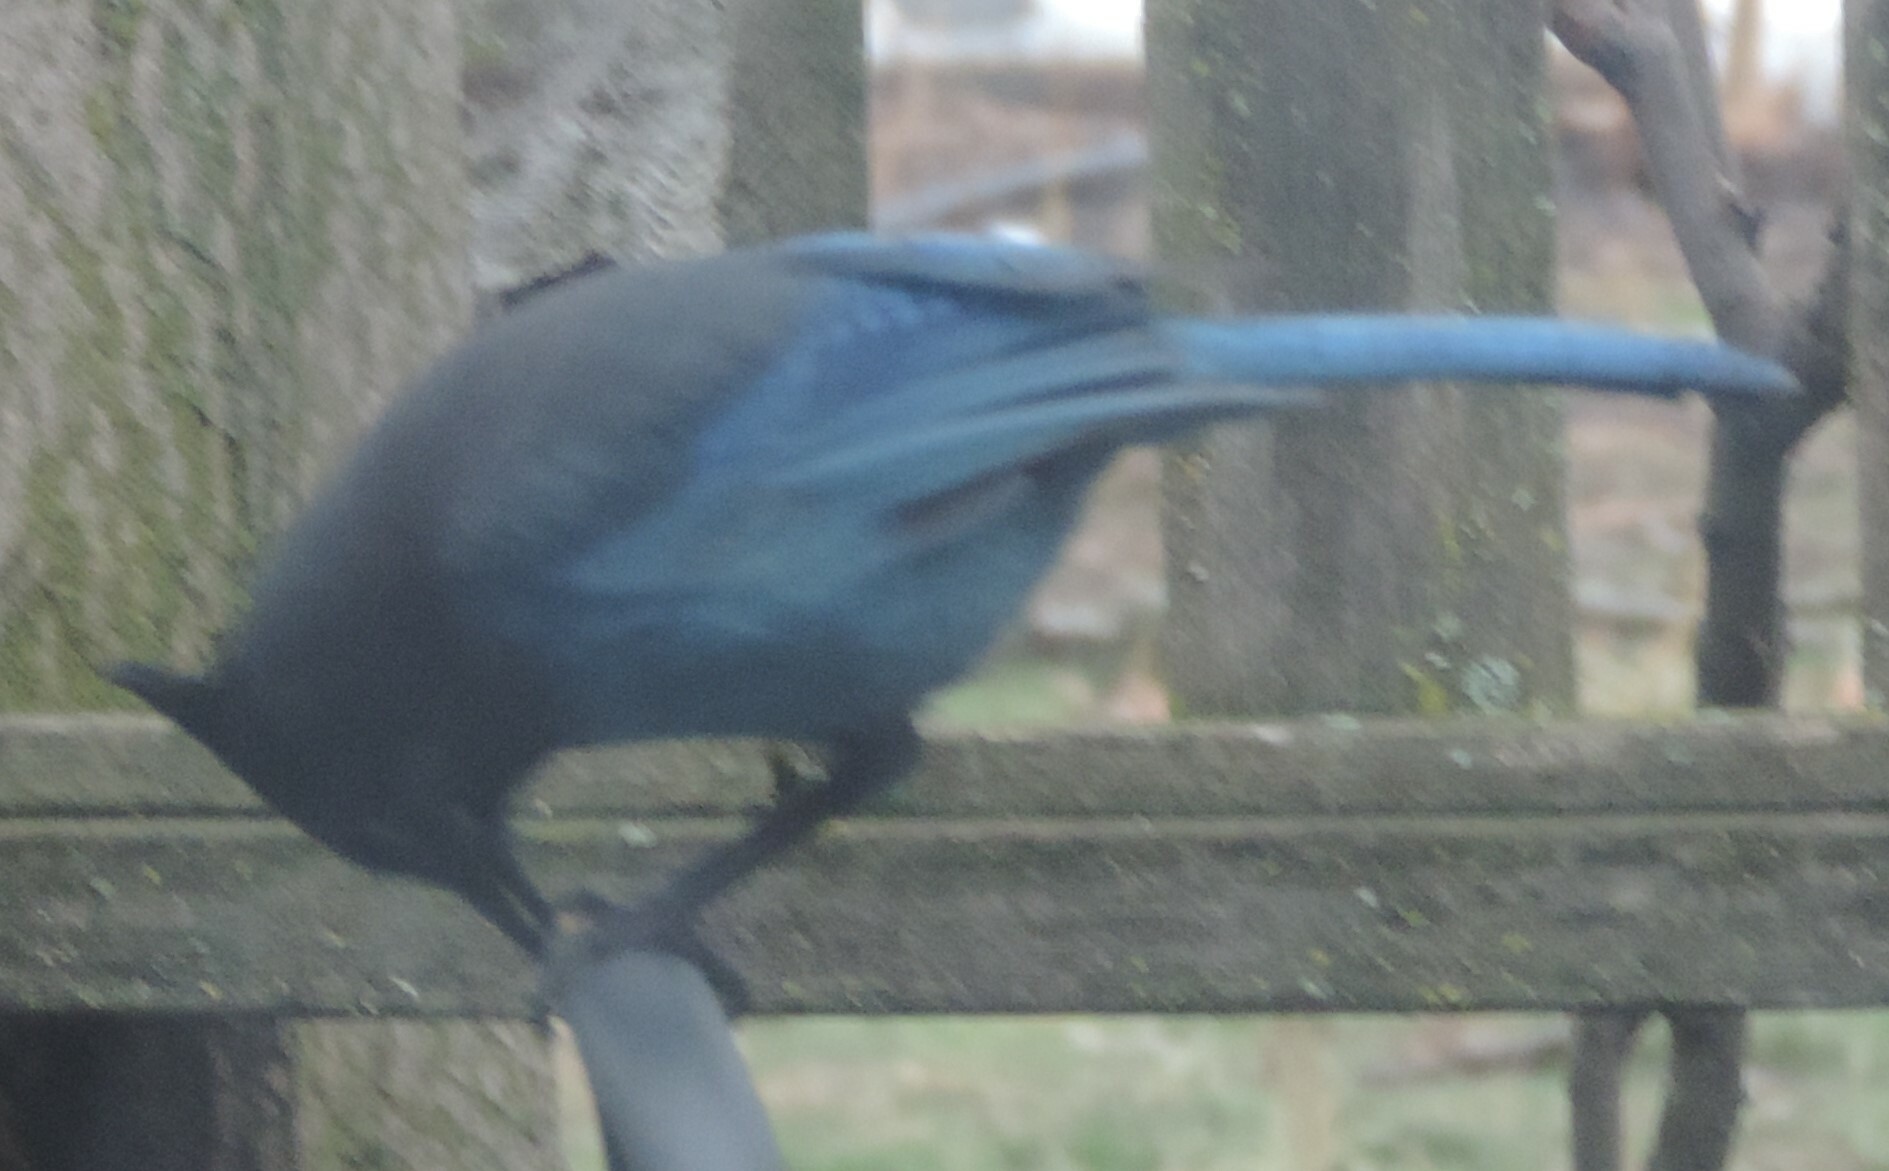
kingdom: Animalia
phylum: Chordata
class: Aves
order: Passeriformes
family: Corvidae
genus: Cyanocitta
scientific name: Cyanocitta stelleri
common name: Steller's jay
